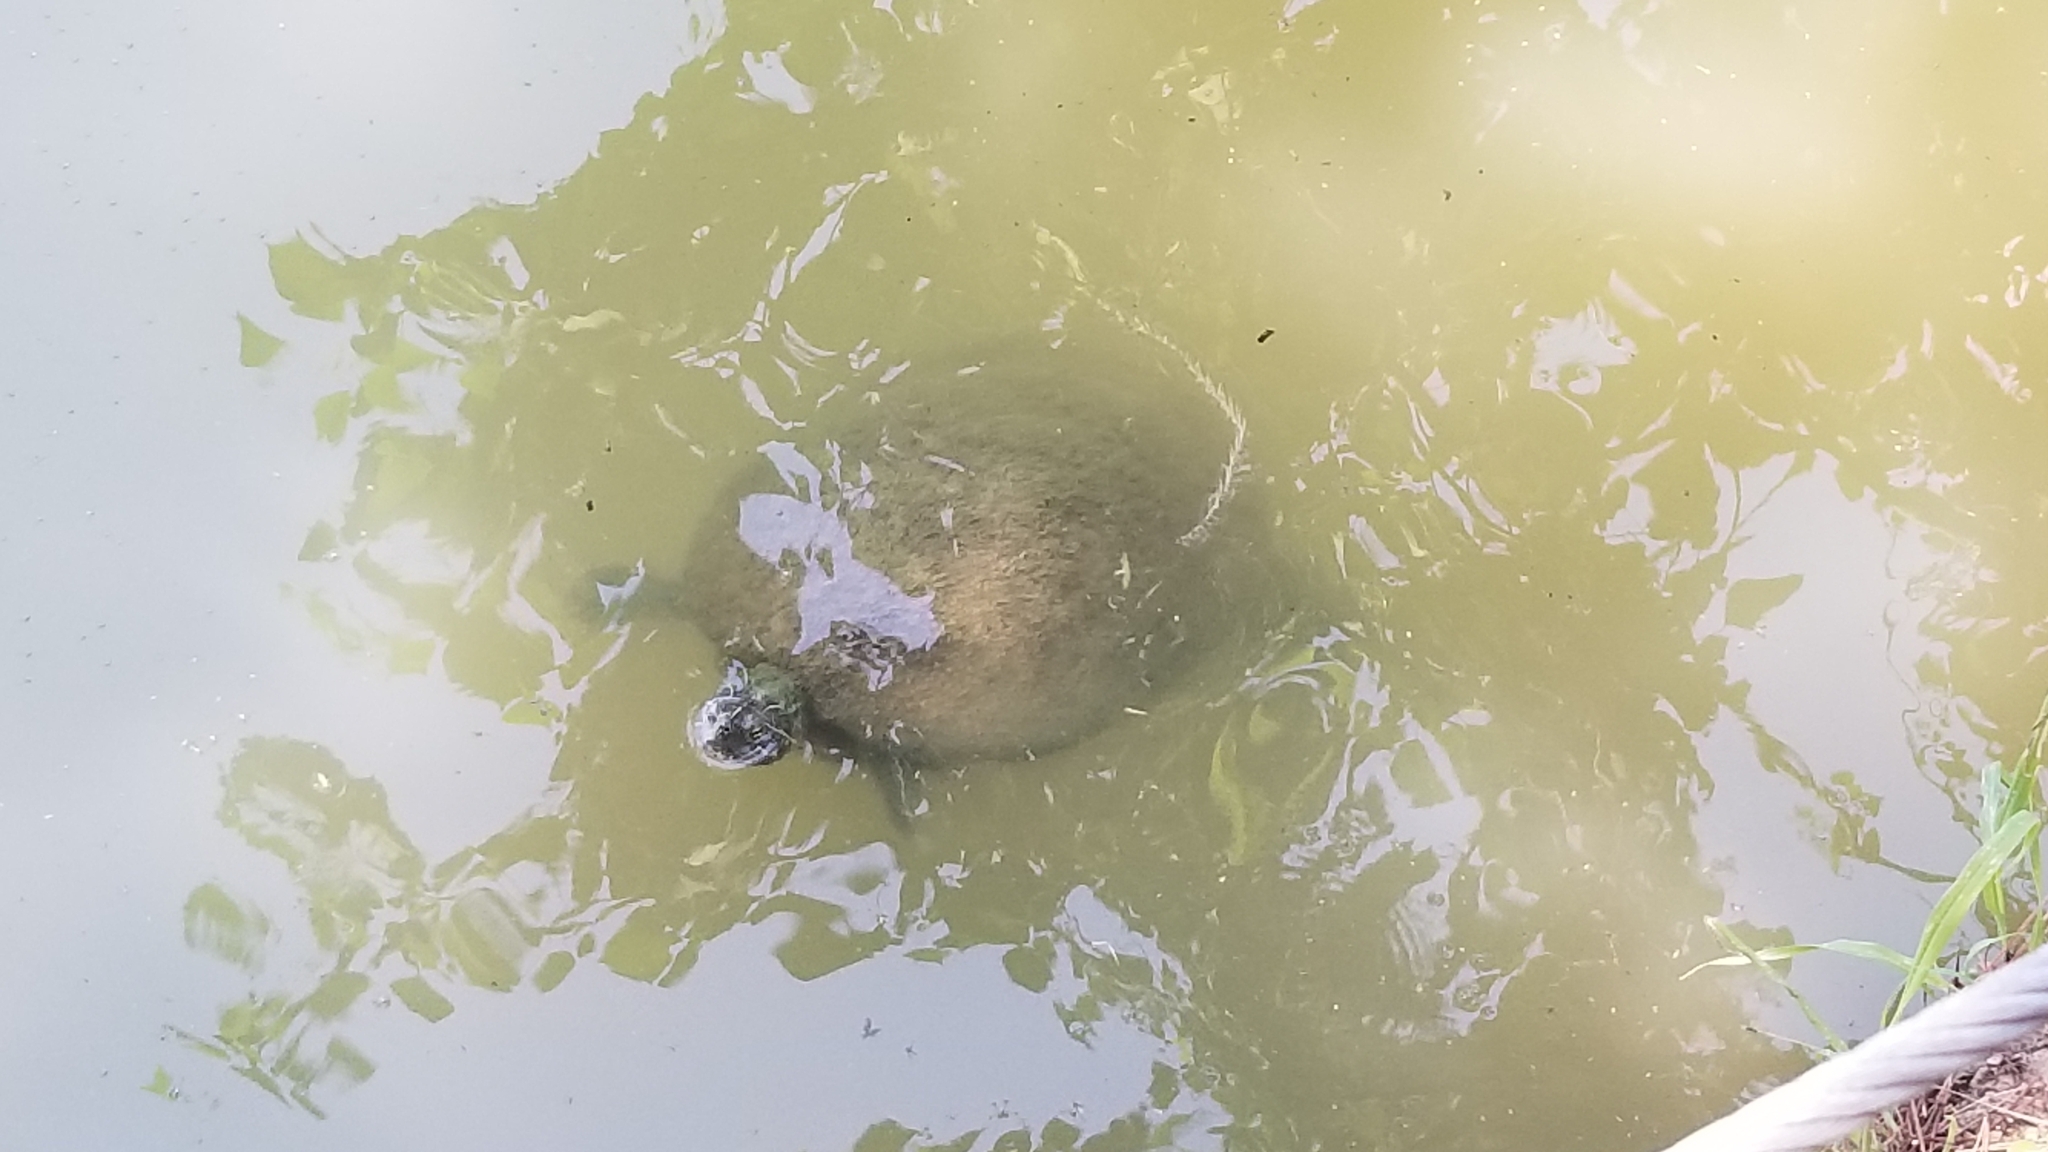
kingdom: Animalia
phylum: Chordata
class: Testudines
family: Emydidae
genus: Pseudemys
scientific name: Pseudemys concinna
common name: Eastern river cooter
